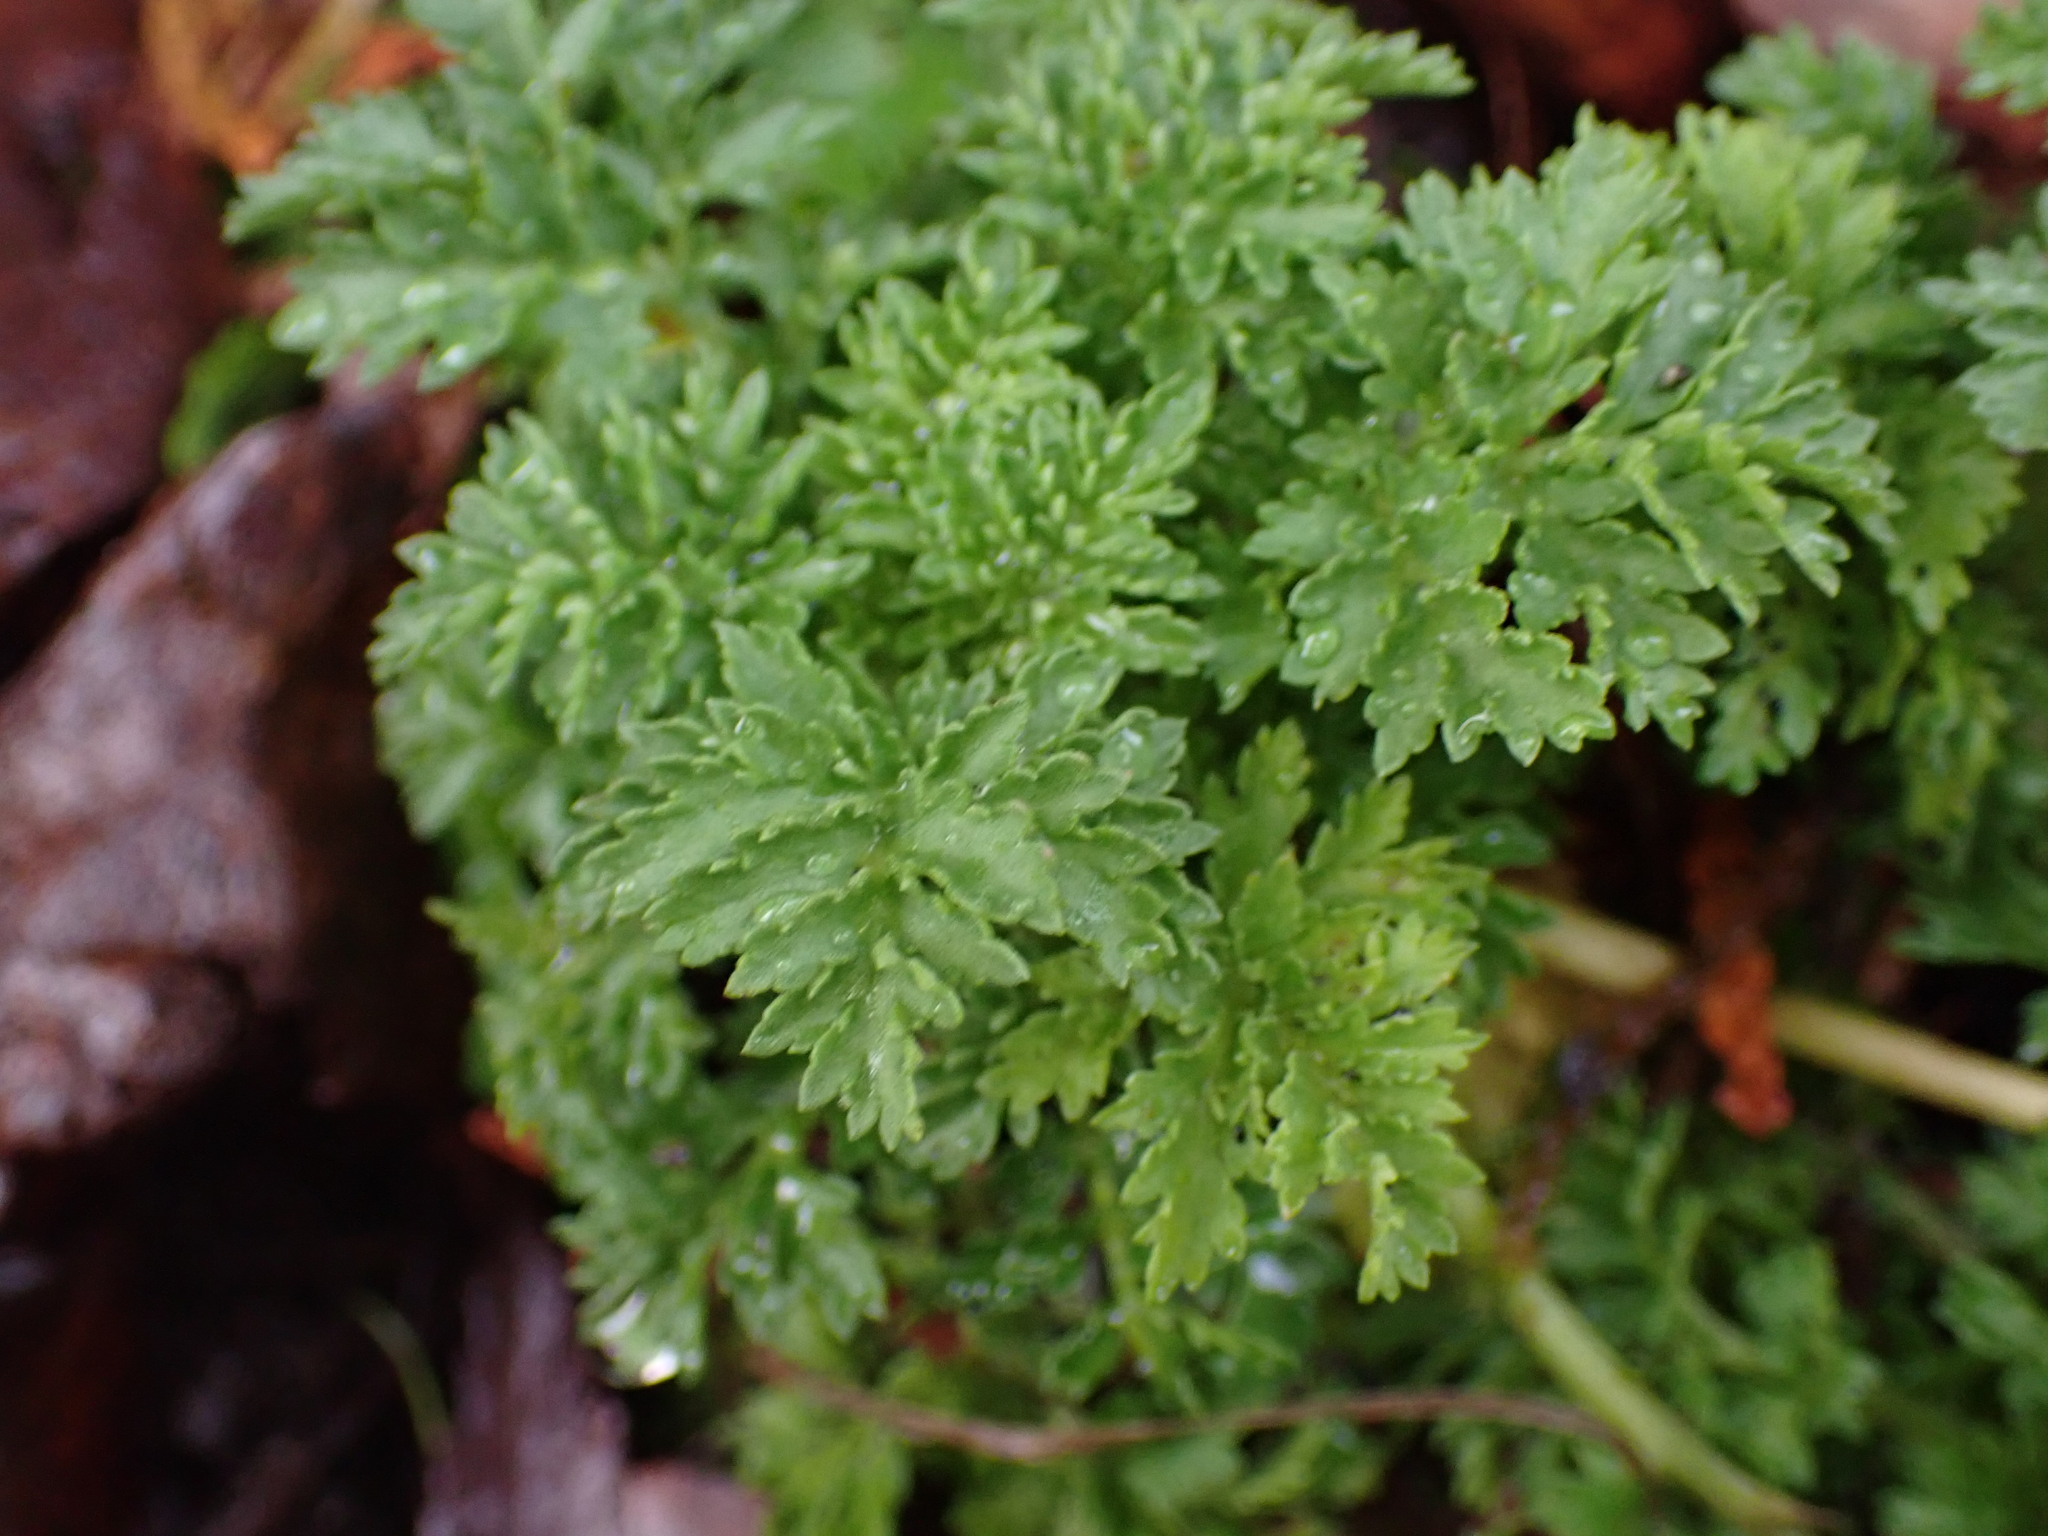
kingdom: Plantae
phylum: Tracheophyta
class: Magnoliopsida
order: Apiales
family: Apiaceae
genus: Conium
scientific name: Conium maculatum
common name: Hemlock
